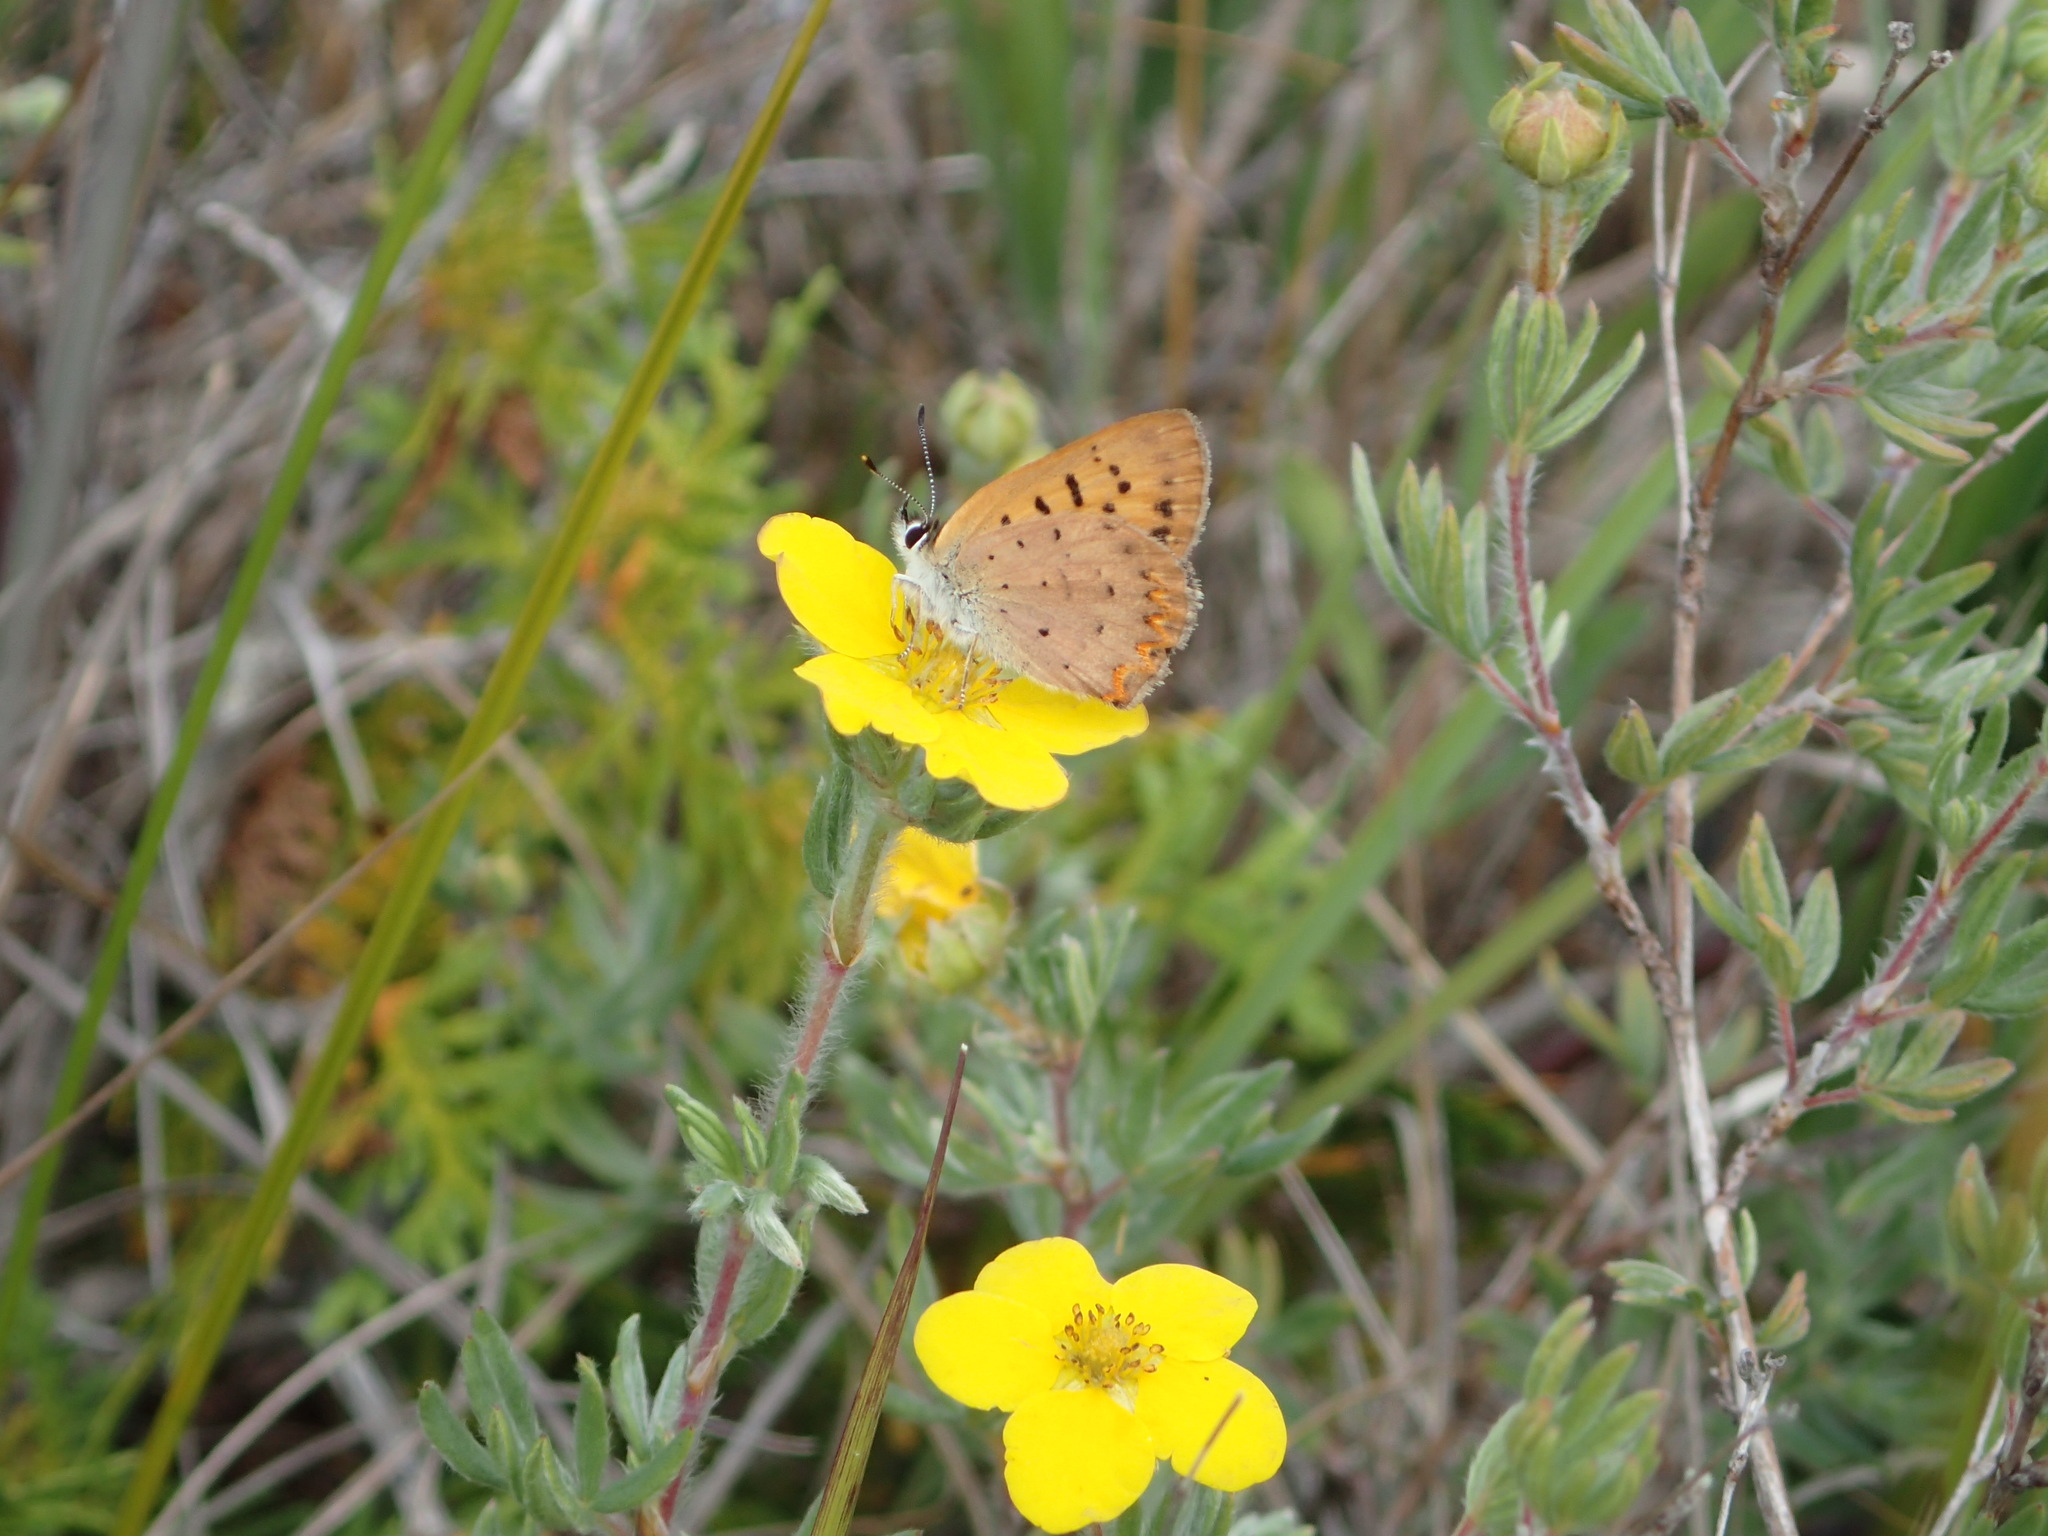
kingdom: Animalia
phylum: Arthropoda
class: Insecta
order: Lepidoptera
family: Lycaenidae
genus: Tharsalea
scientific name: Tharsalea dorcas
